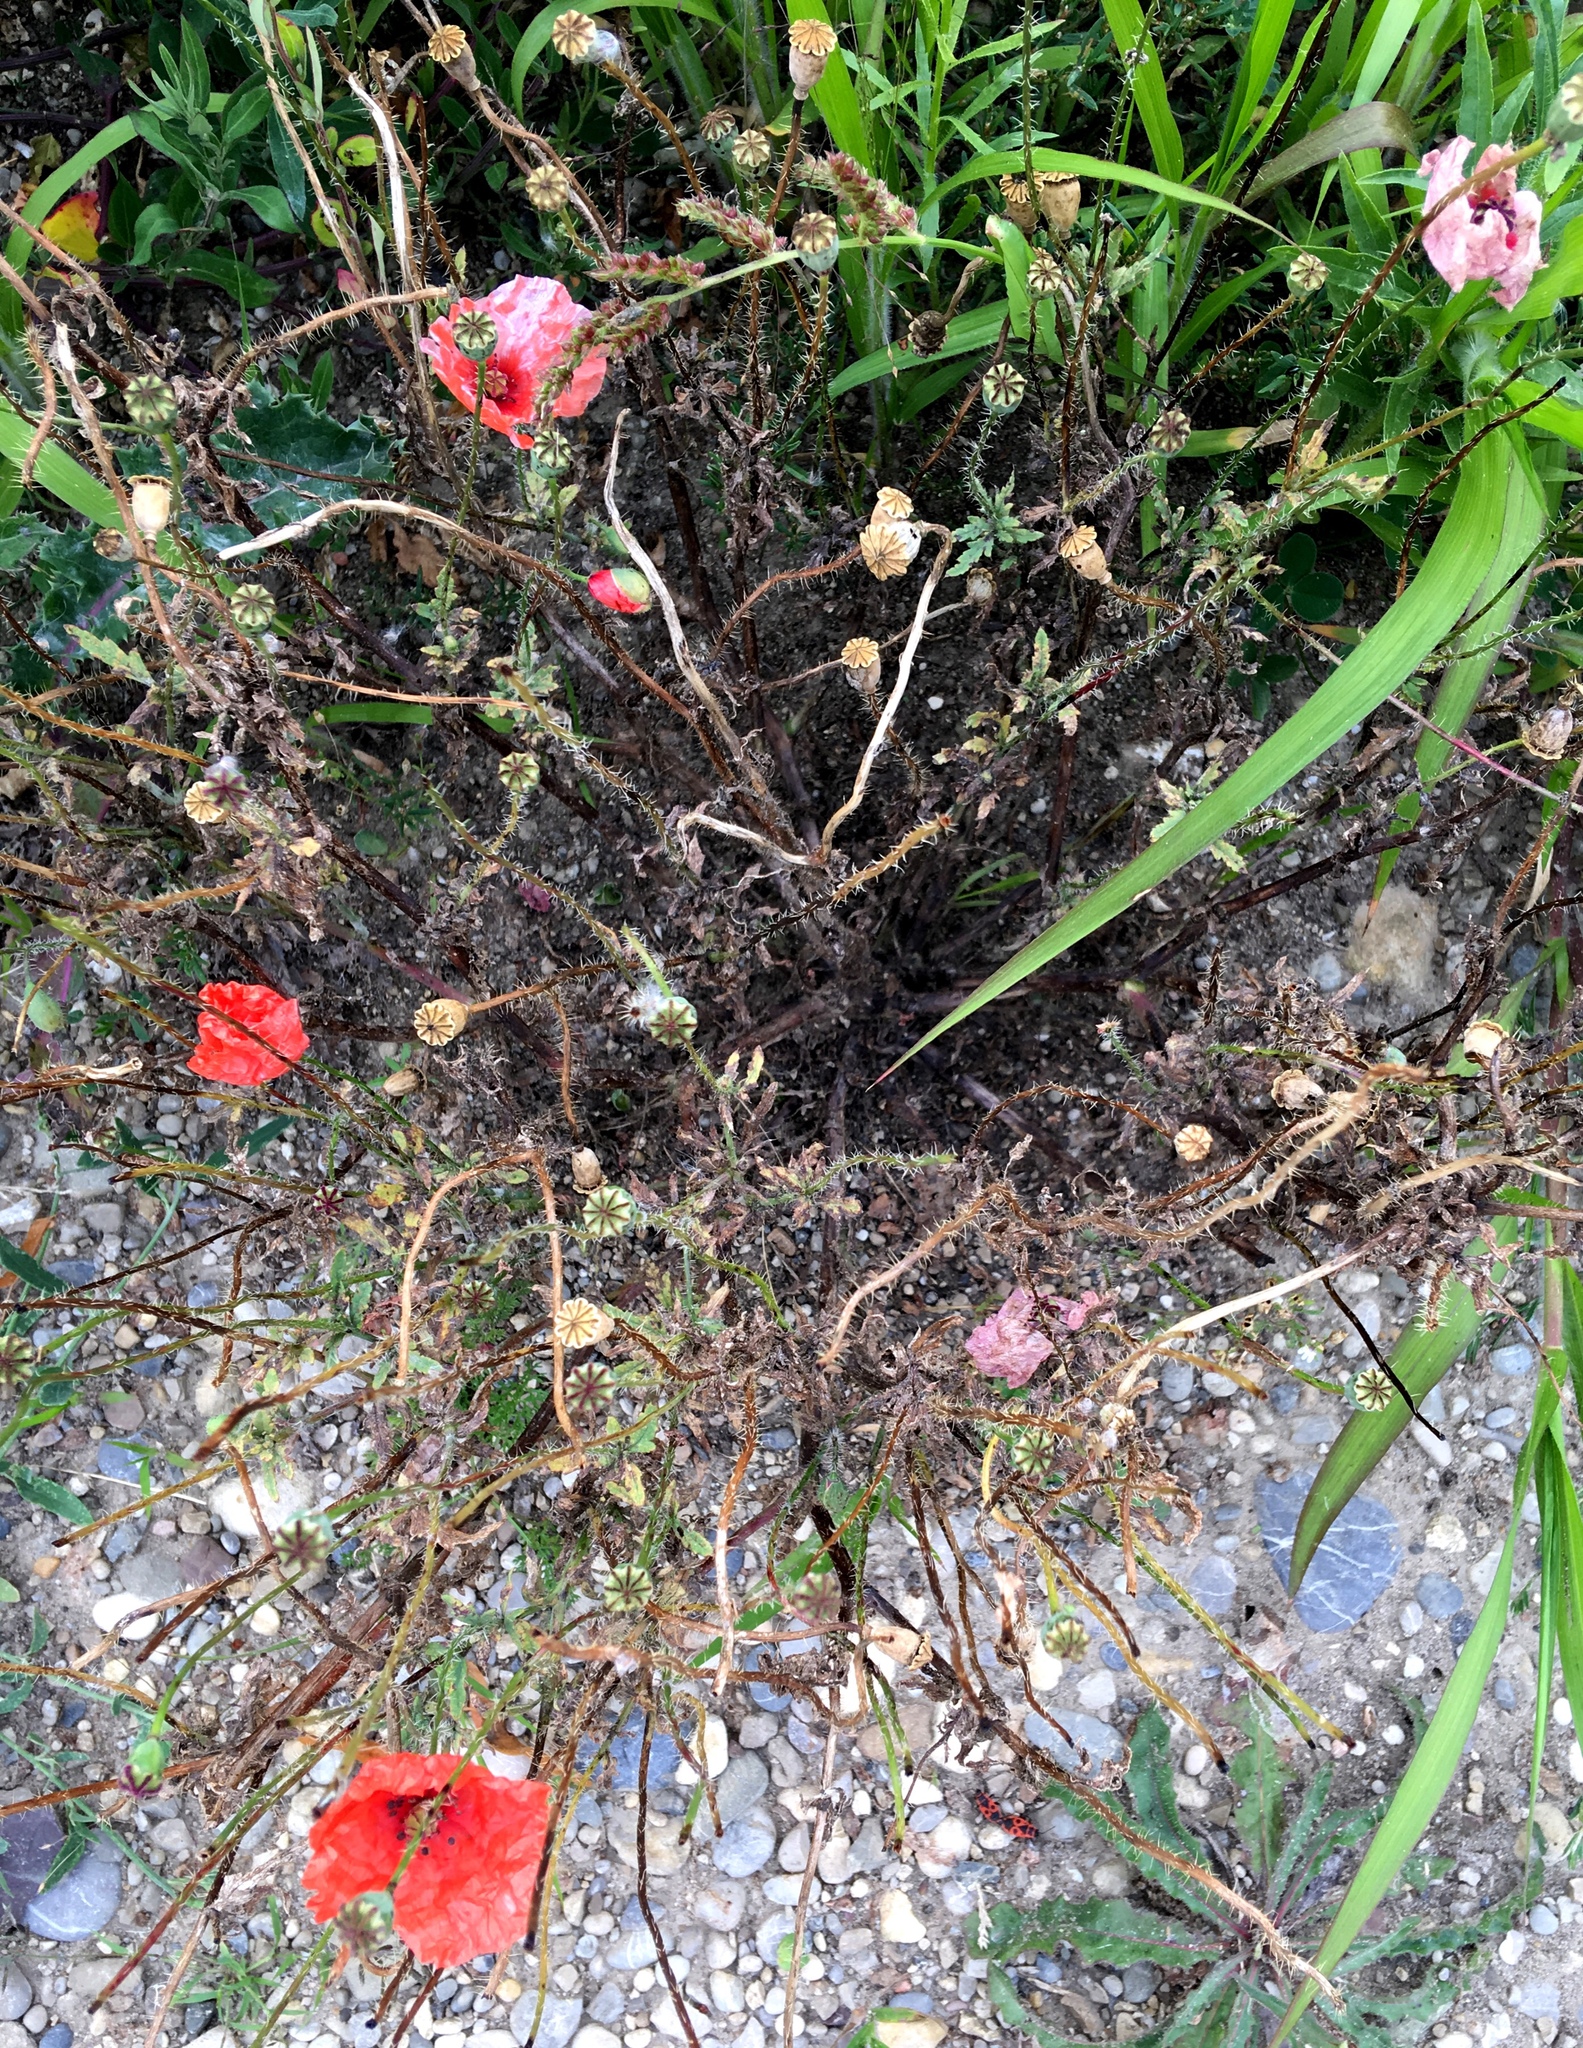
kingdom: Plantae
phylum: Tracheophyta
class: Magnoliopsida
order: Ranunculales
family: Papaveraceae
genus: Papaver
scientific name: Papaver rhoeas
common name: Corn poppy
